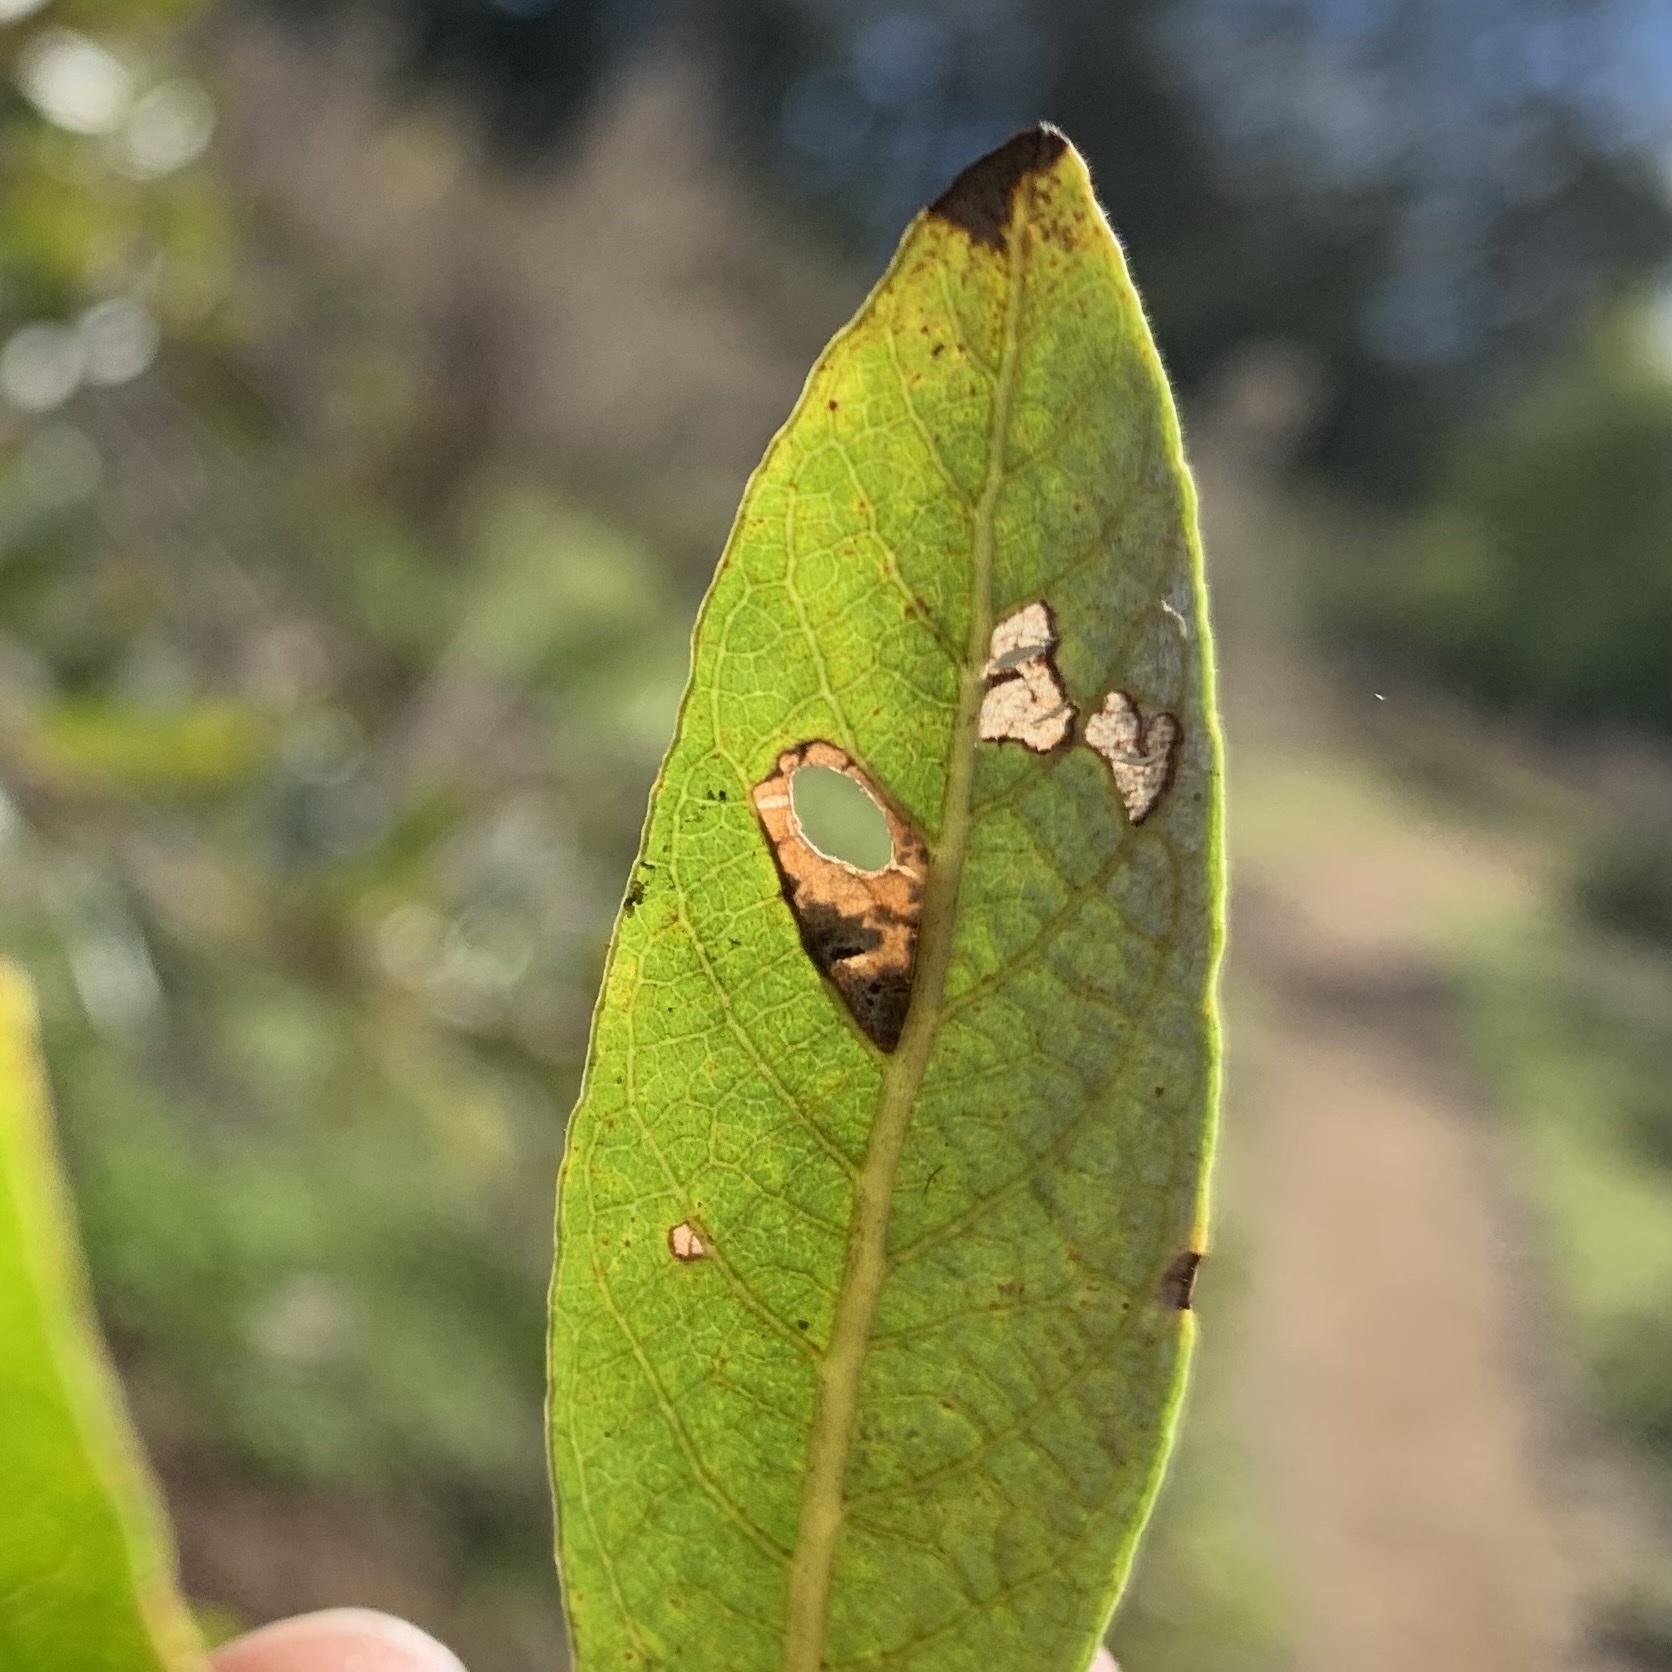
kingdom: Animalia
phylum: Arthropoda
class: Insecta
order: Lepidoptera
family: Heliozelidae
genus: Coptodisca
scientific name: Coptodisca saliciella
